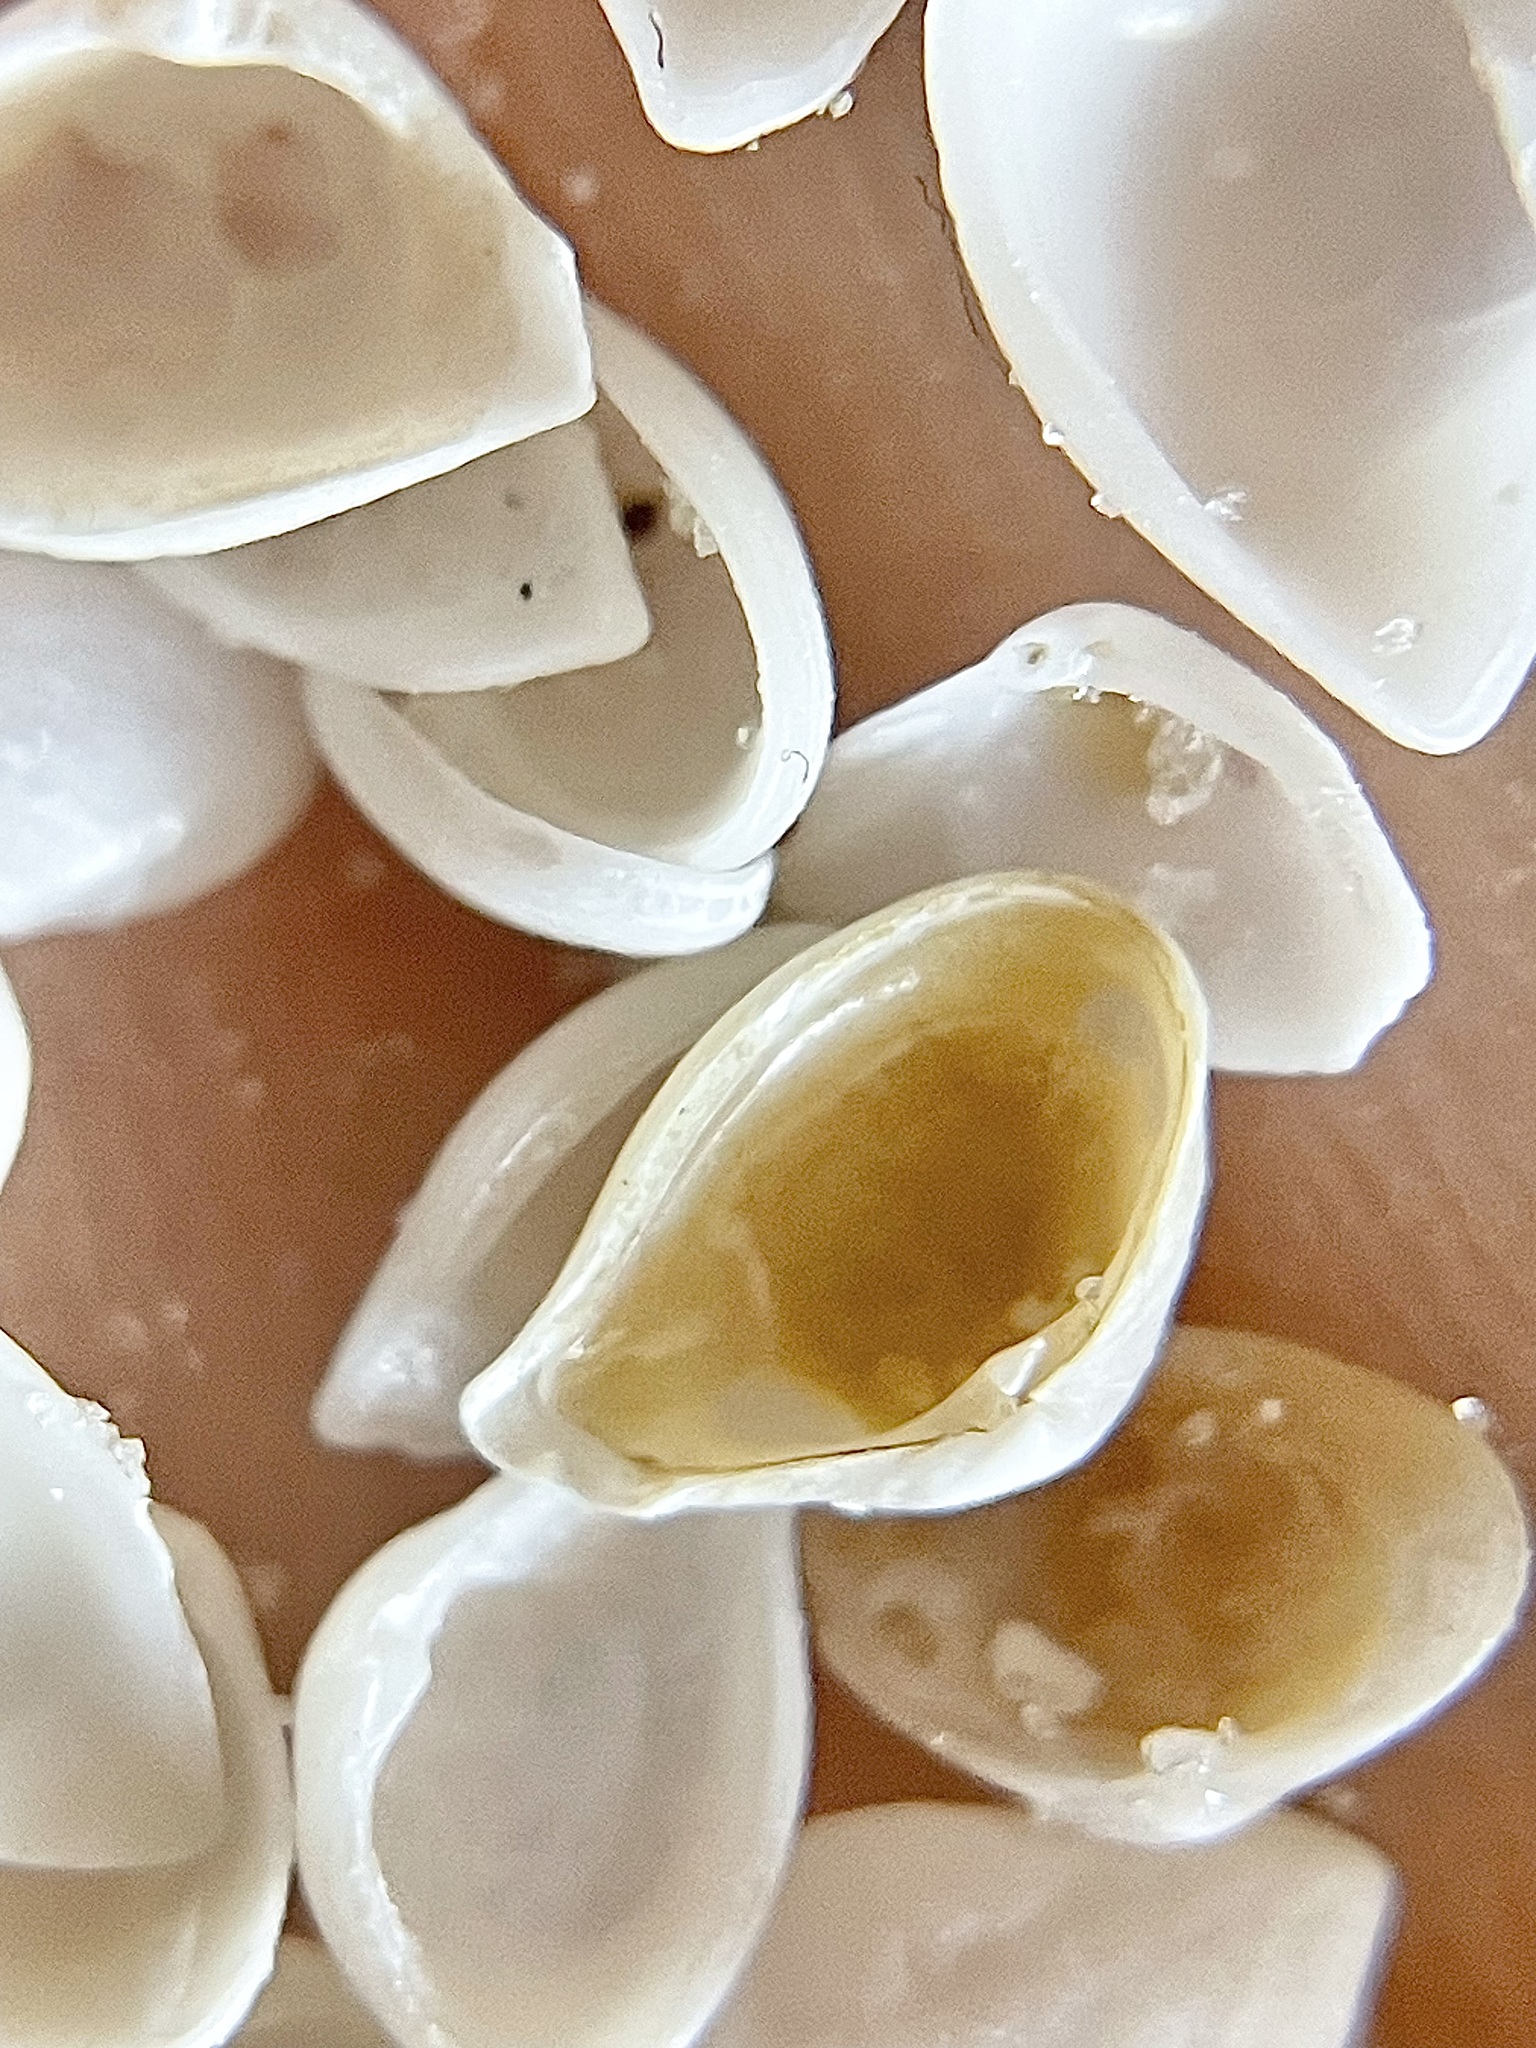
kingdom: Animalia
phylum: Mollusca
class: Bivalvia
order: Myida
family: Corbulidae
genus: Caryocorbula
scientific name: Caryocorbula swiftiana
